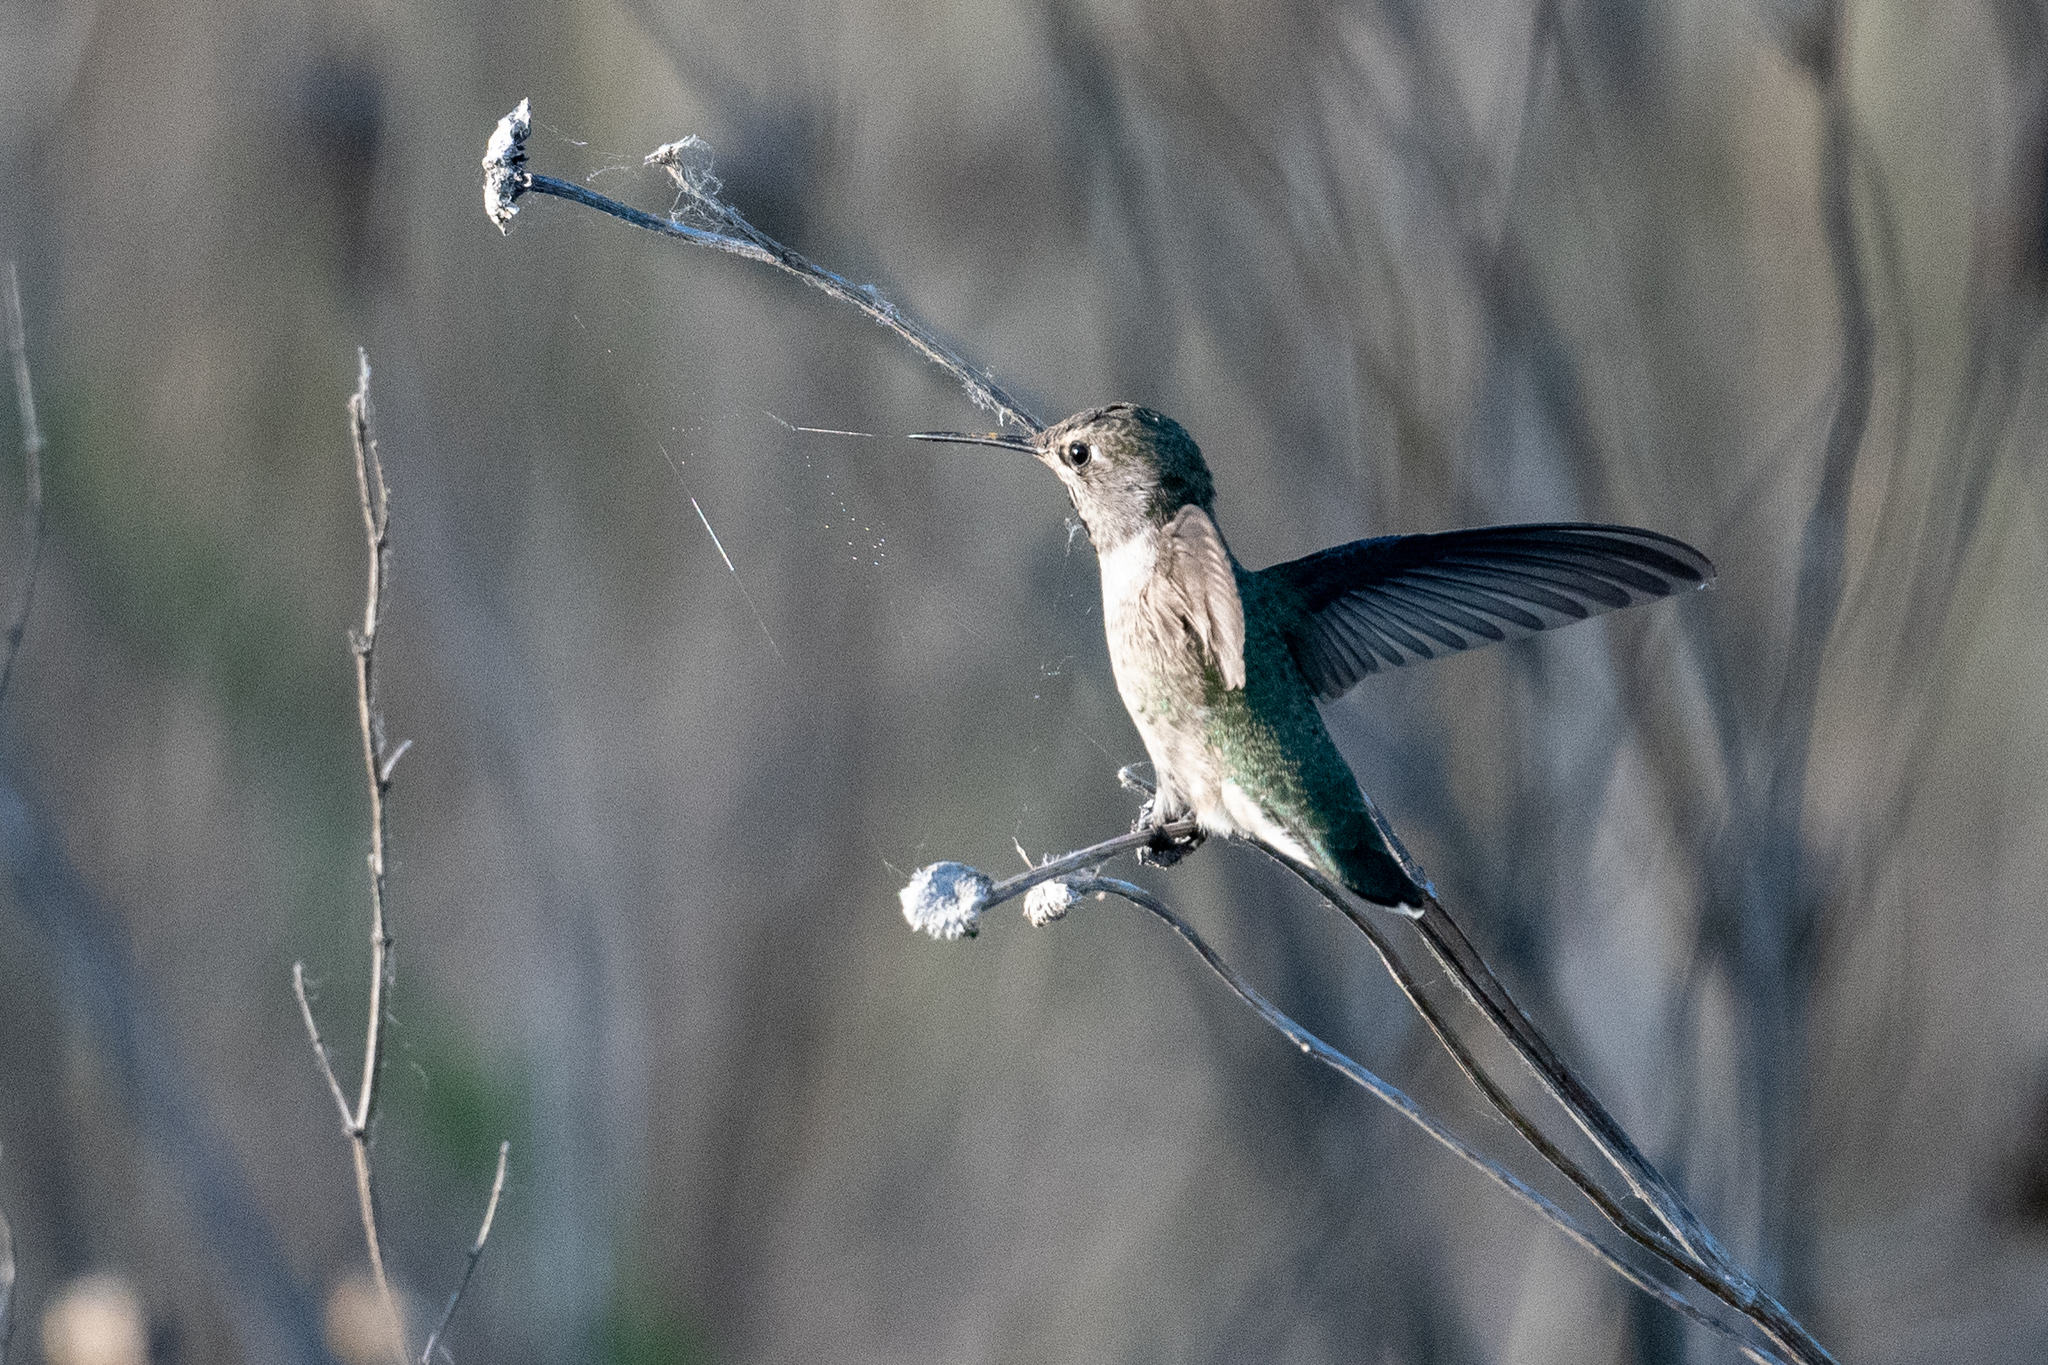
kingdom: Animalia
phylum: Chordata
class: Aves
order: Apodiformes
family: Trochilidae
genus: Calypte
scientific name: Calypte anna
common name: Anna's hummingbird
